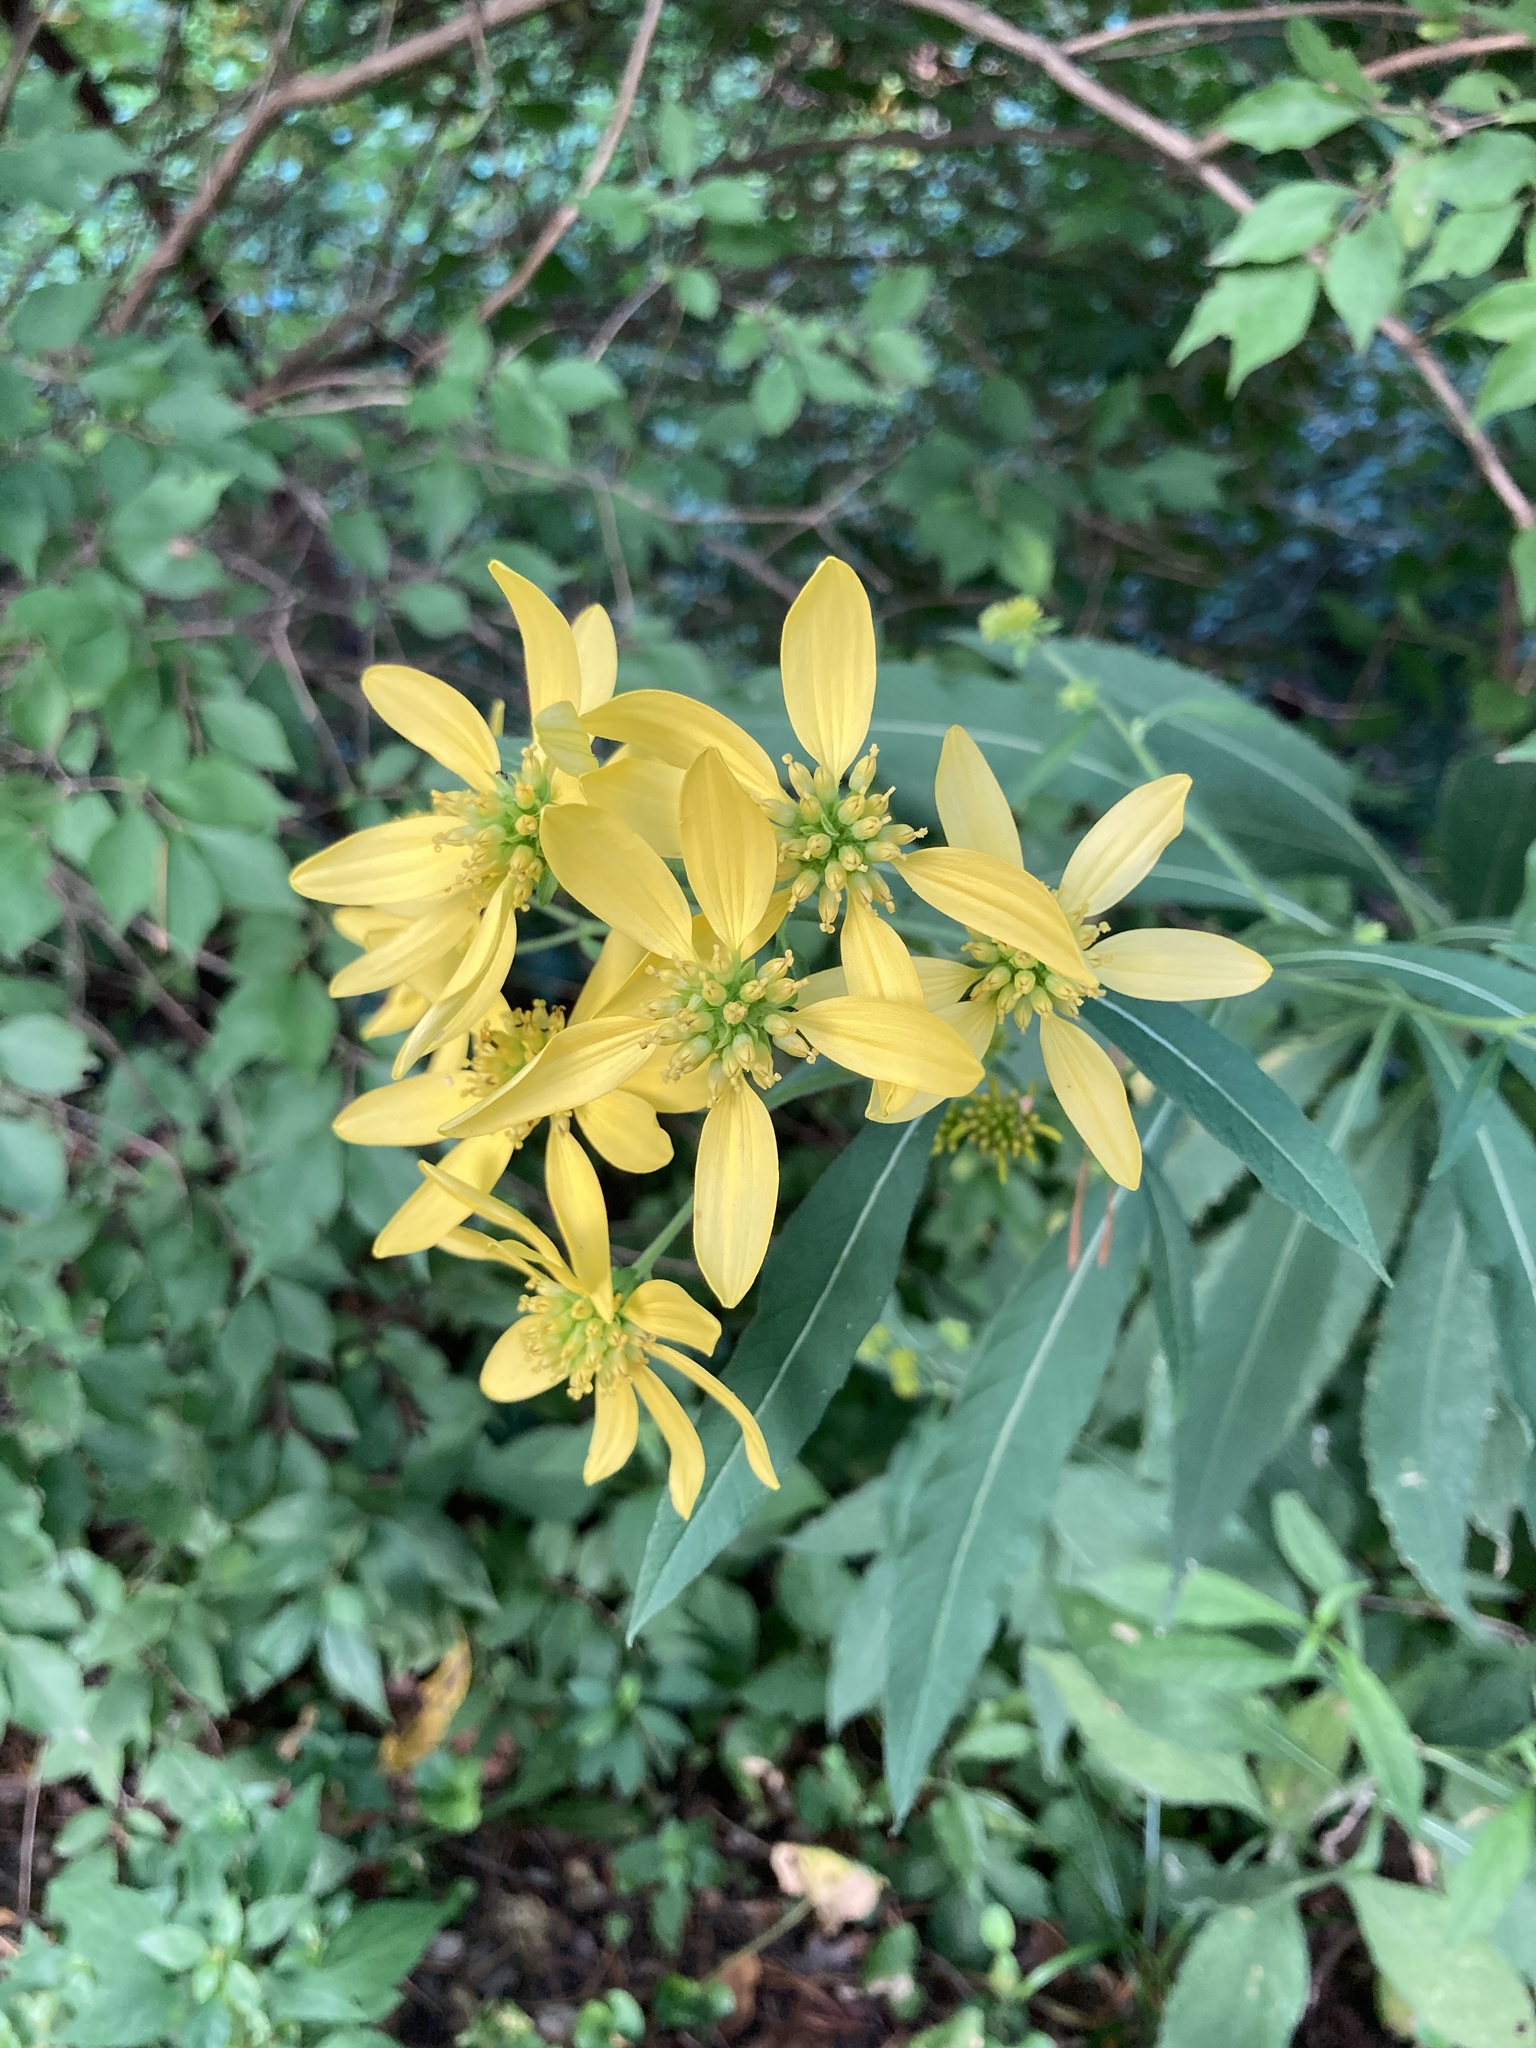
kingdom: Plantae
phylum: Tracheophyta
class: Magnoliopsida
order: Asterales
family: Asteraceae
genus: Verbesina
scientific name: Verbesina alternifolia
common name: Wingstem
